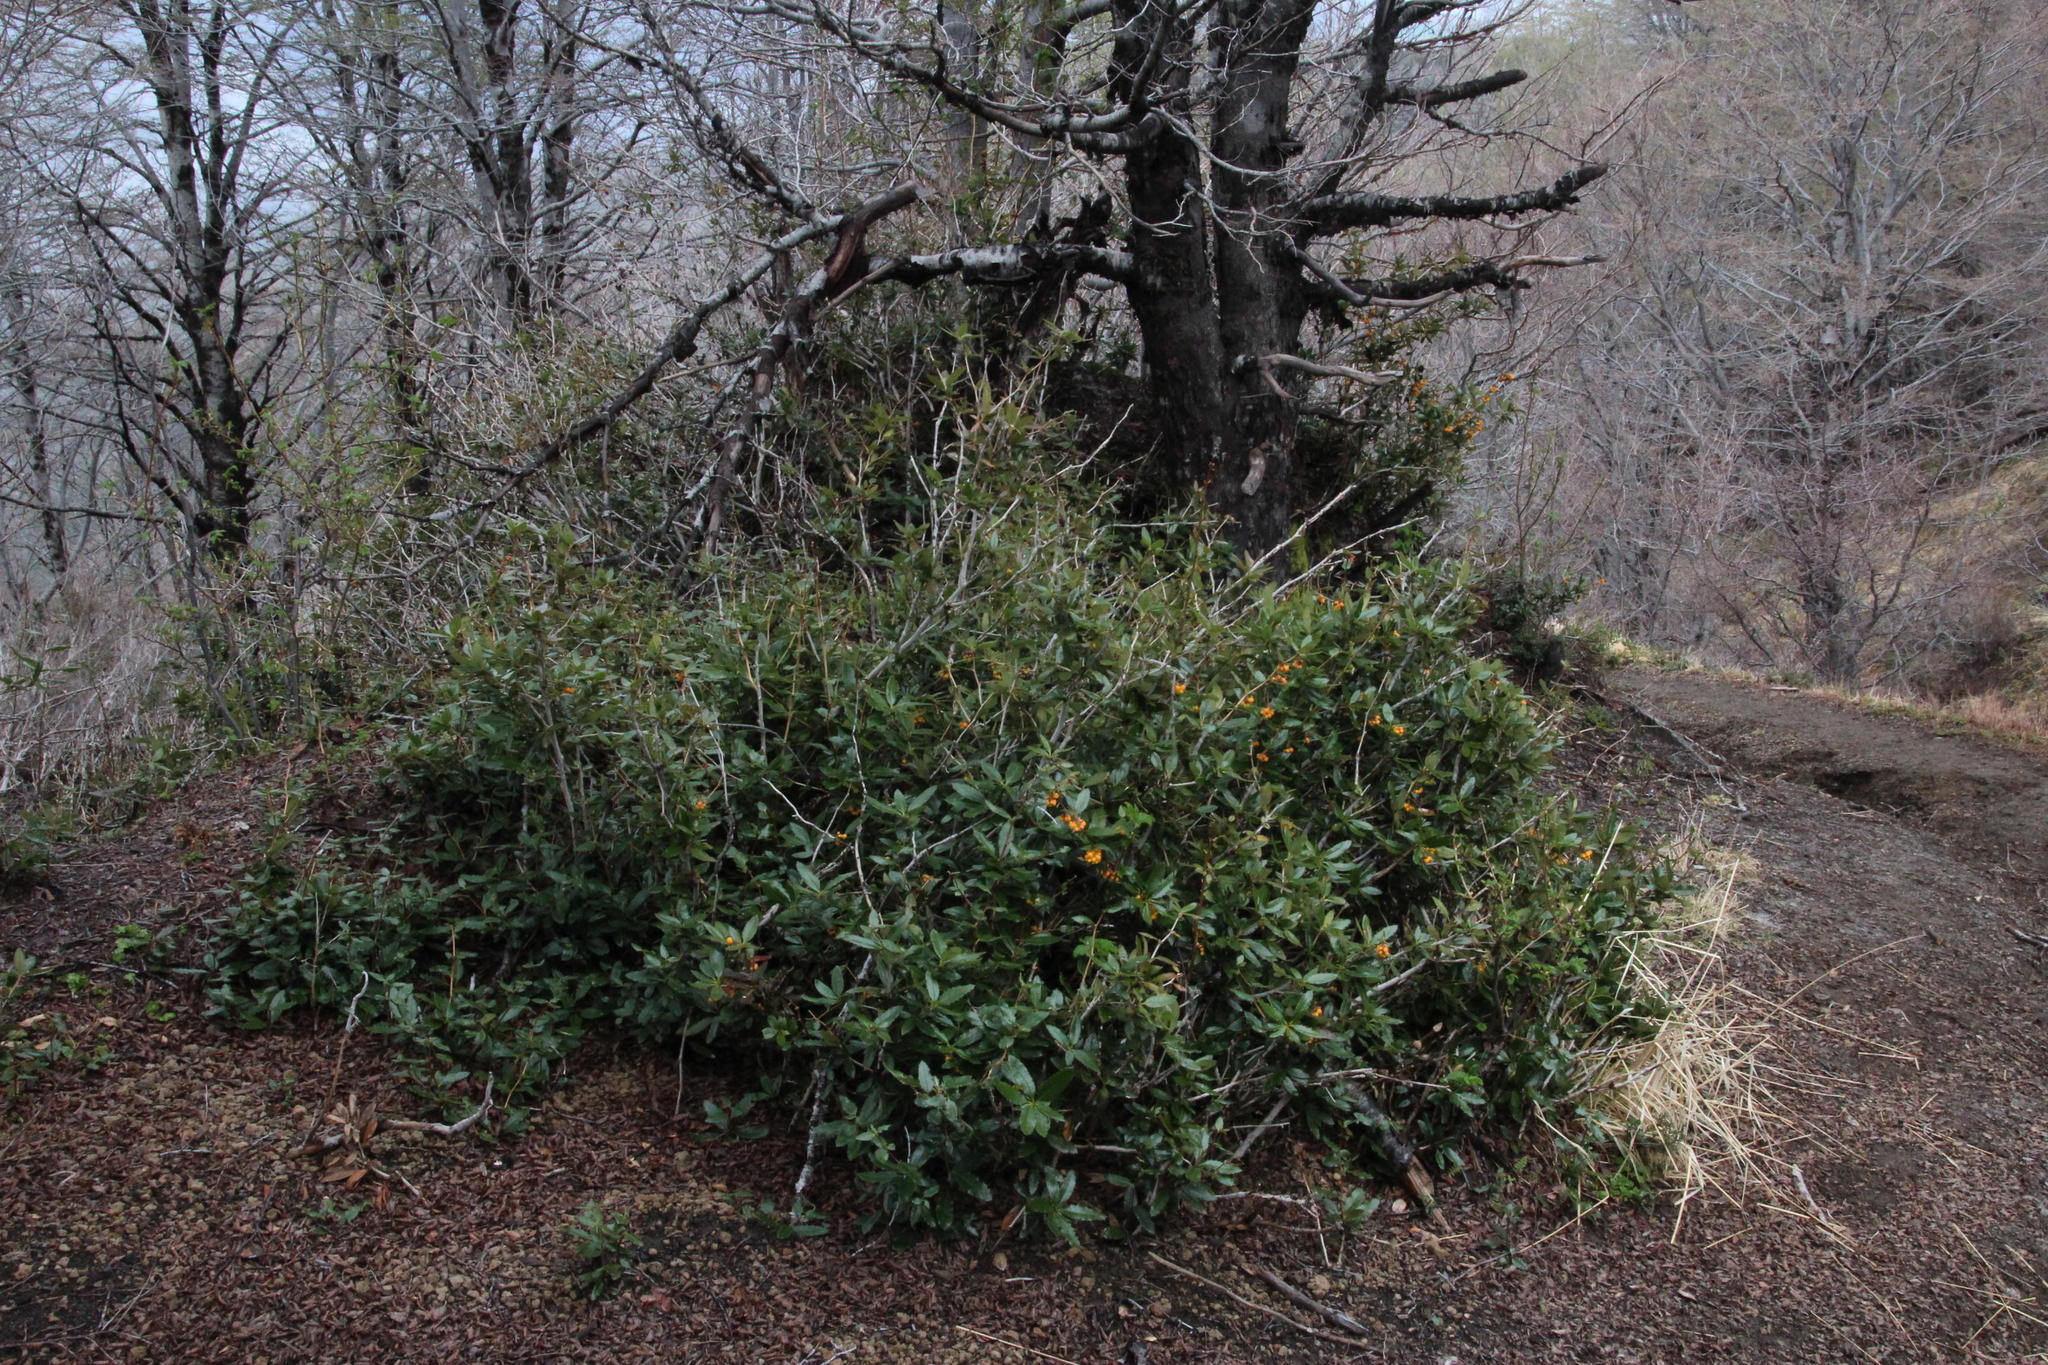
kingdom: Plantae
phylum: Tracheophyta
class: Magnoliopsida
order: Ranunculales
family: Berberidaceae
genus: Berberis
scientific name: Berberis pseudoilicifolia
